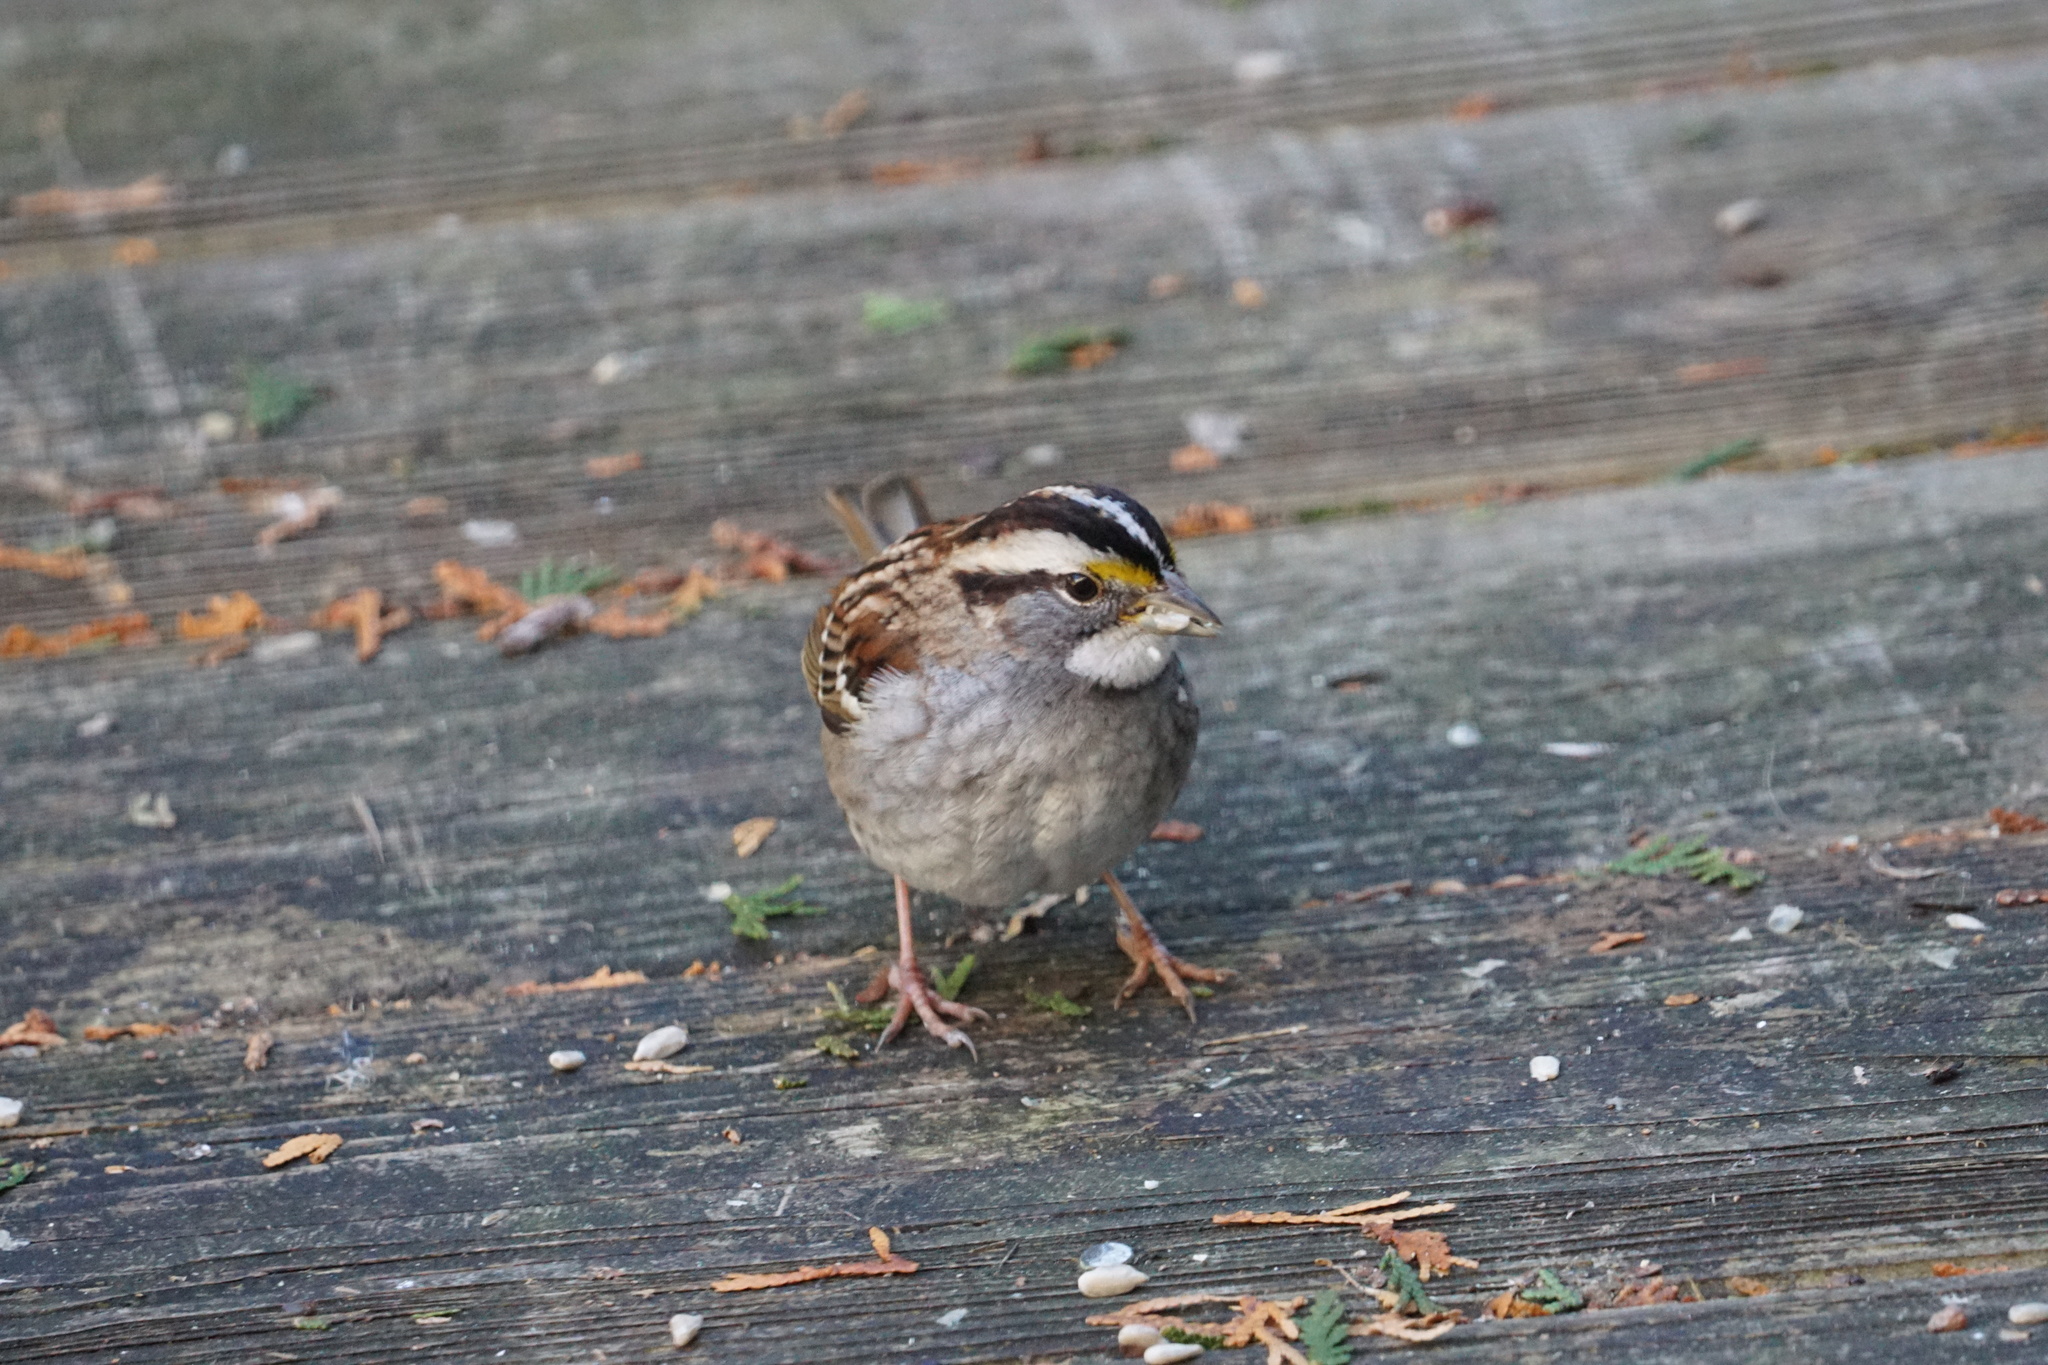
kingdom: Animalia
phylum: Chordata
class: Aves
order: Passeriformes
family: Passerellidae
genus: Zonotrichia
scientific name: Zonotrichia albicollis
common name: White-throated sparrow
